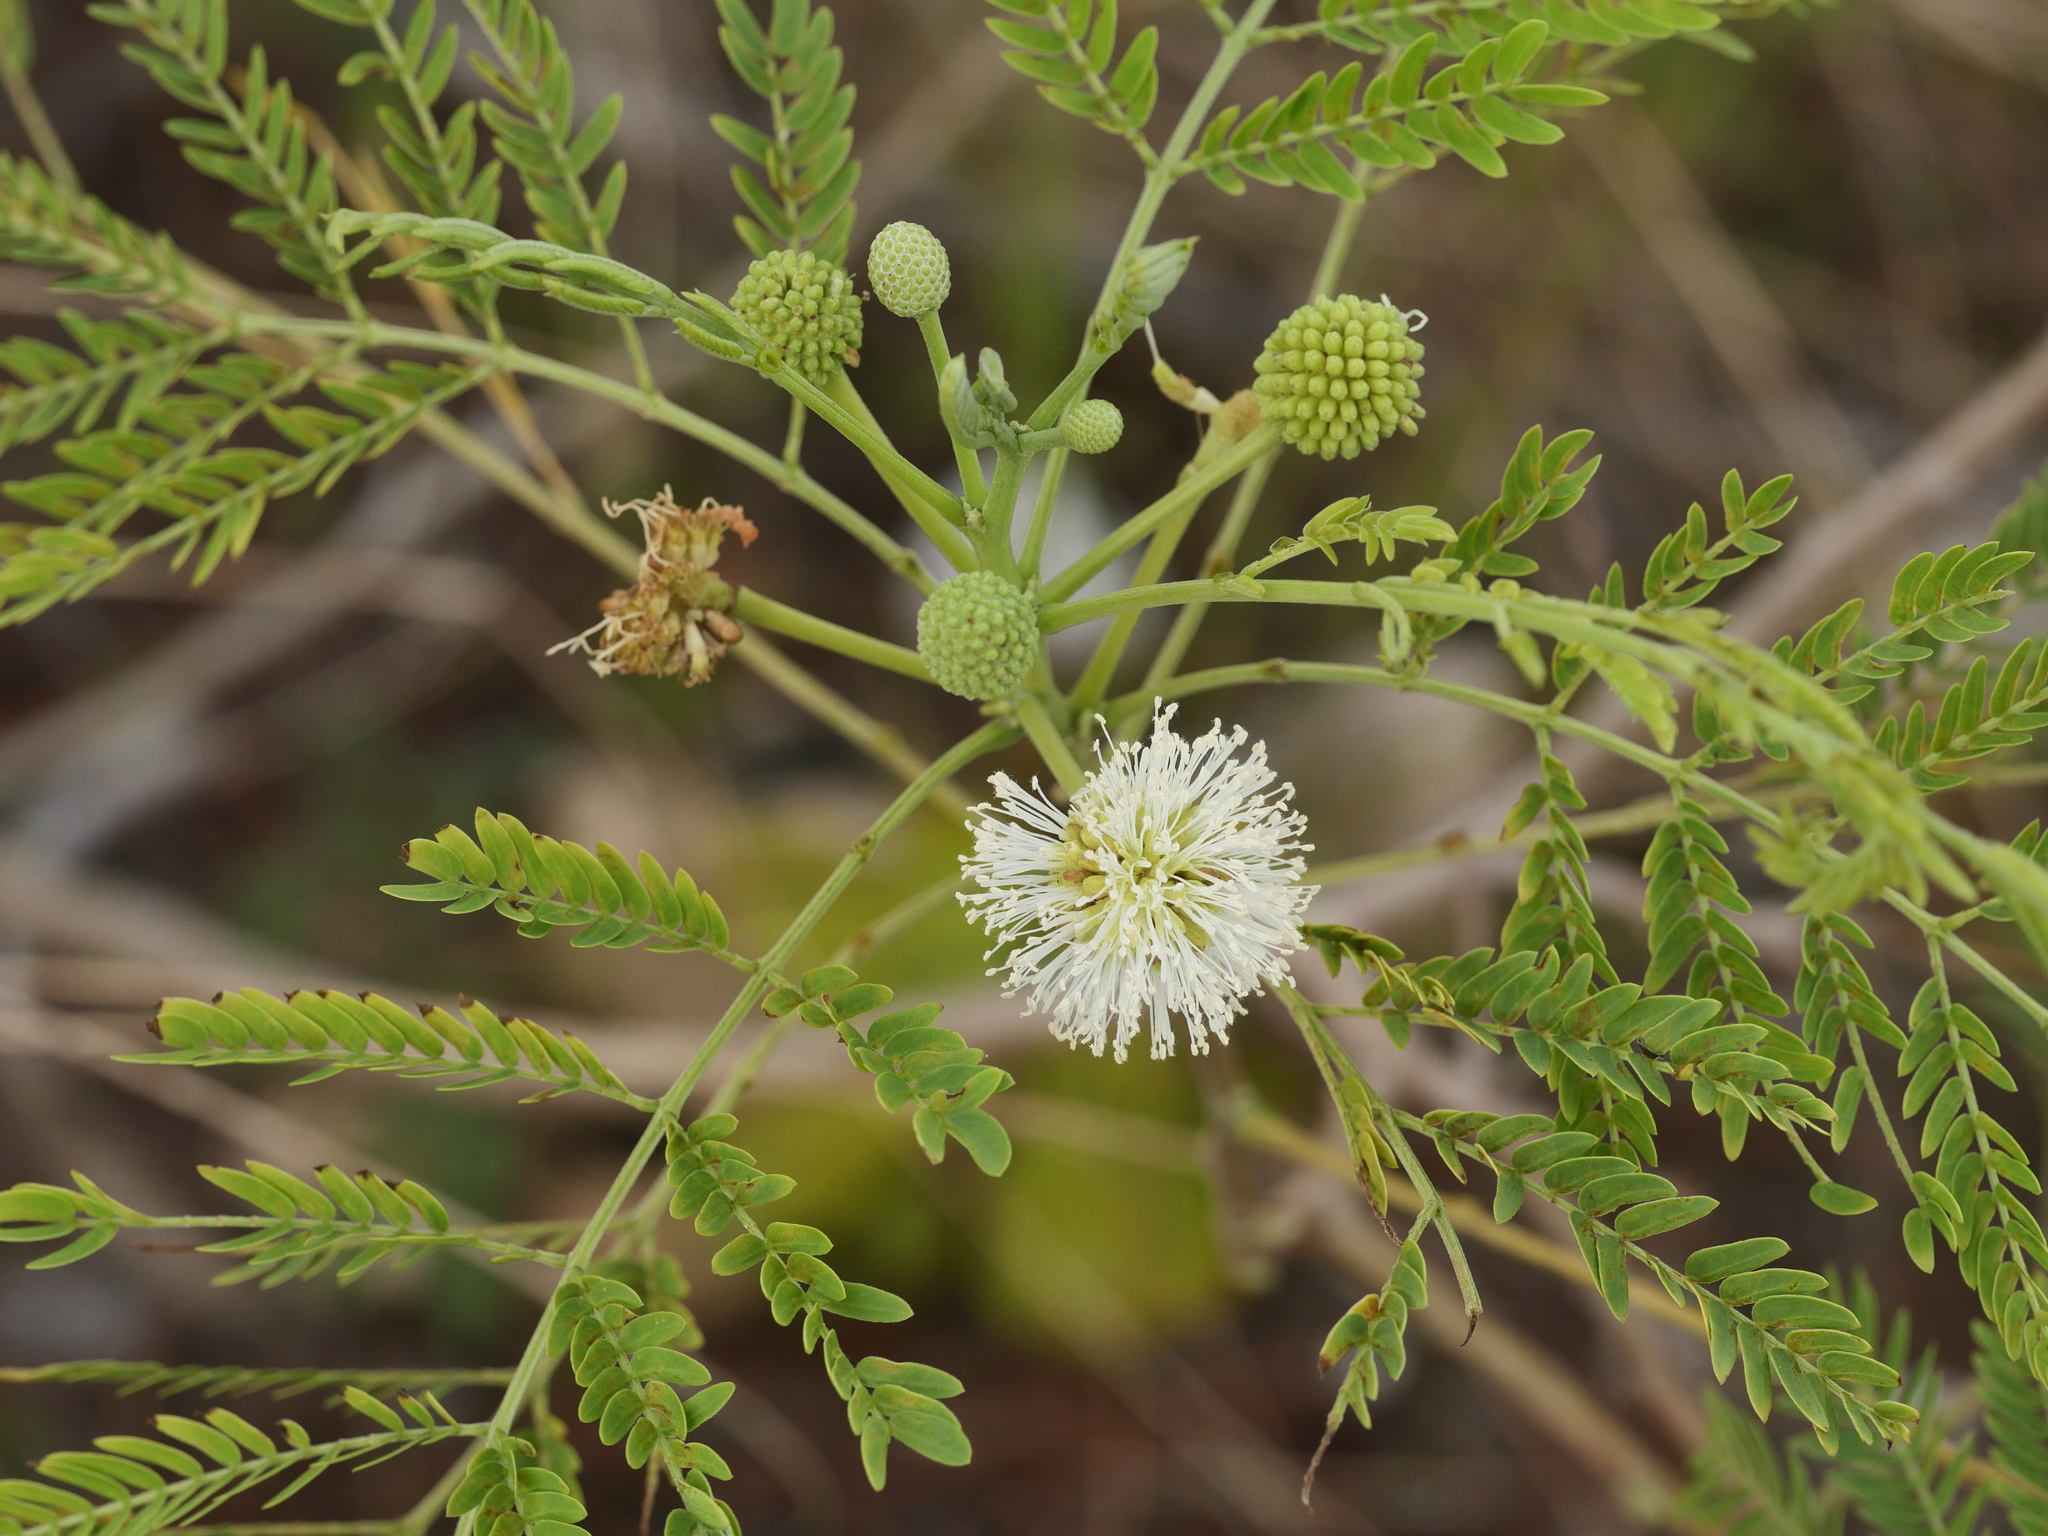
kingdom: Plantae
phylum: Tracheophyta
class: Magnoliopsida
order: Fabales
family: Fabaceae
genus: Leucaena
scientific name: Leucaena leucocephala
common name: White leadtree
